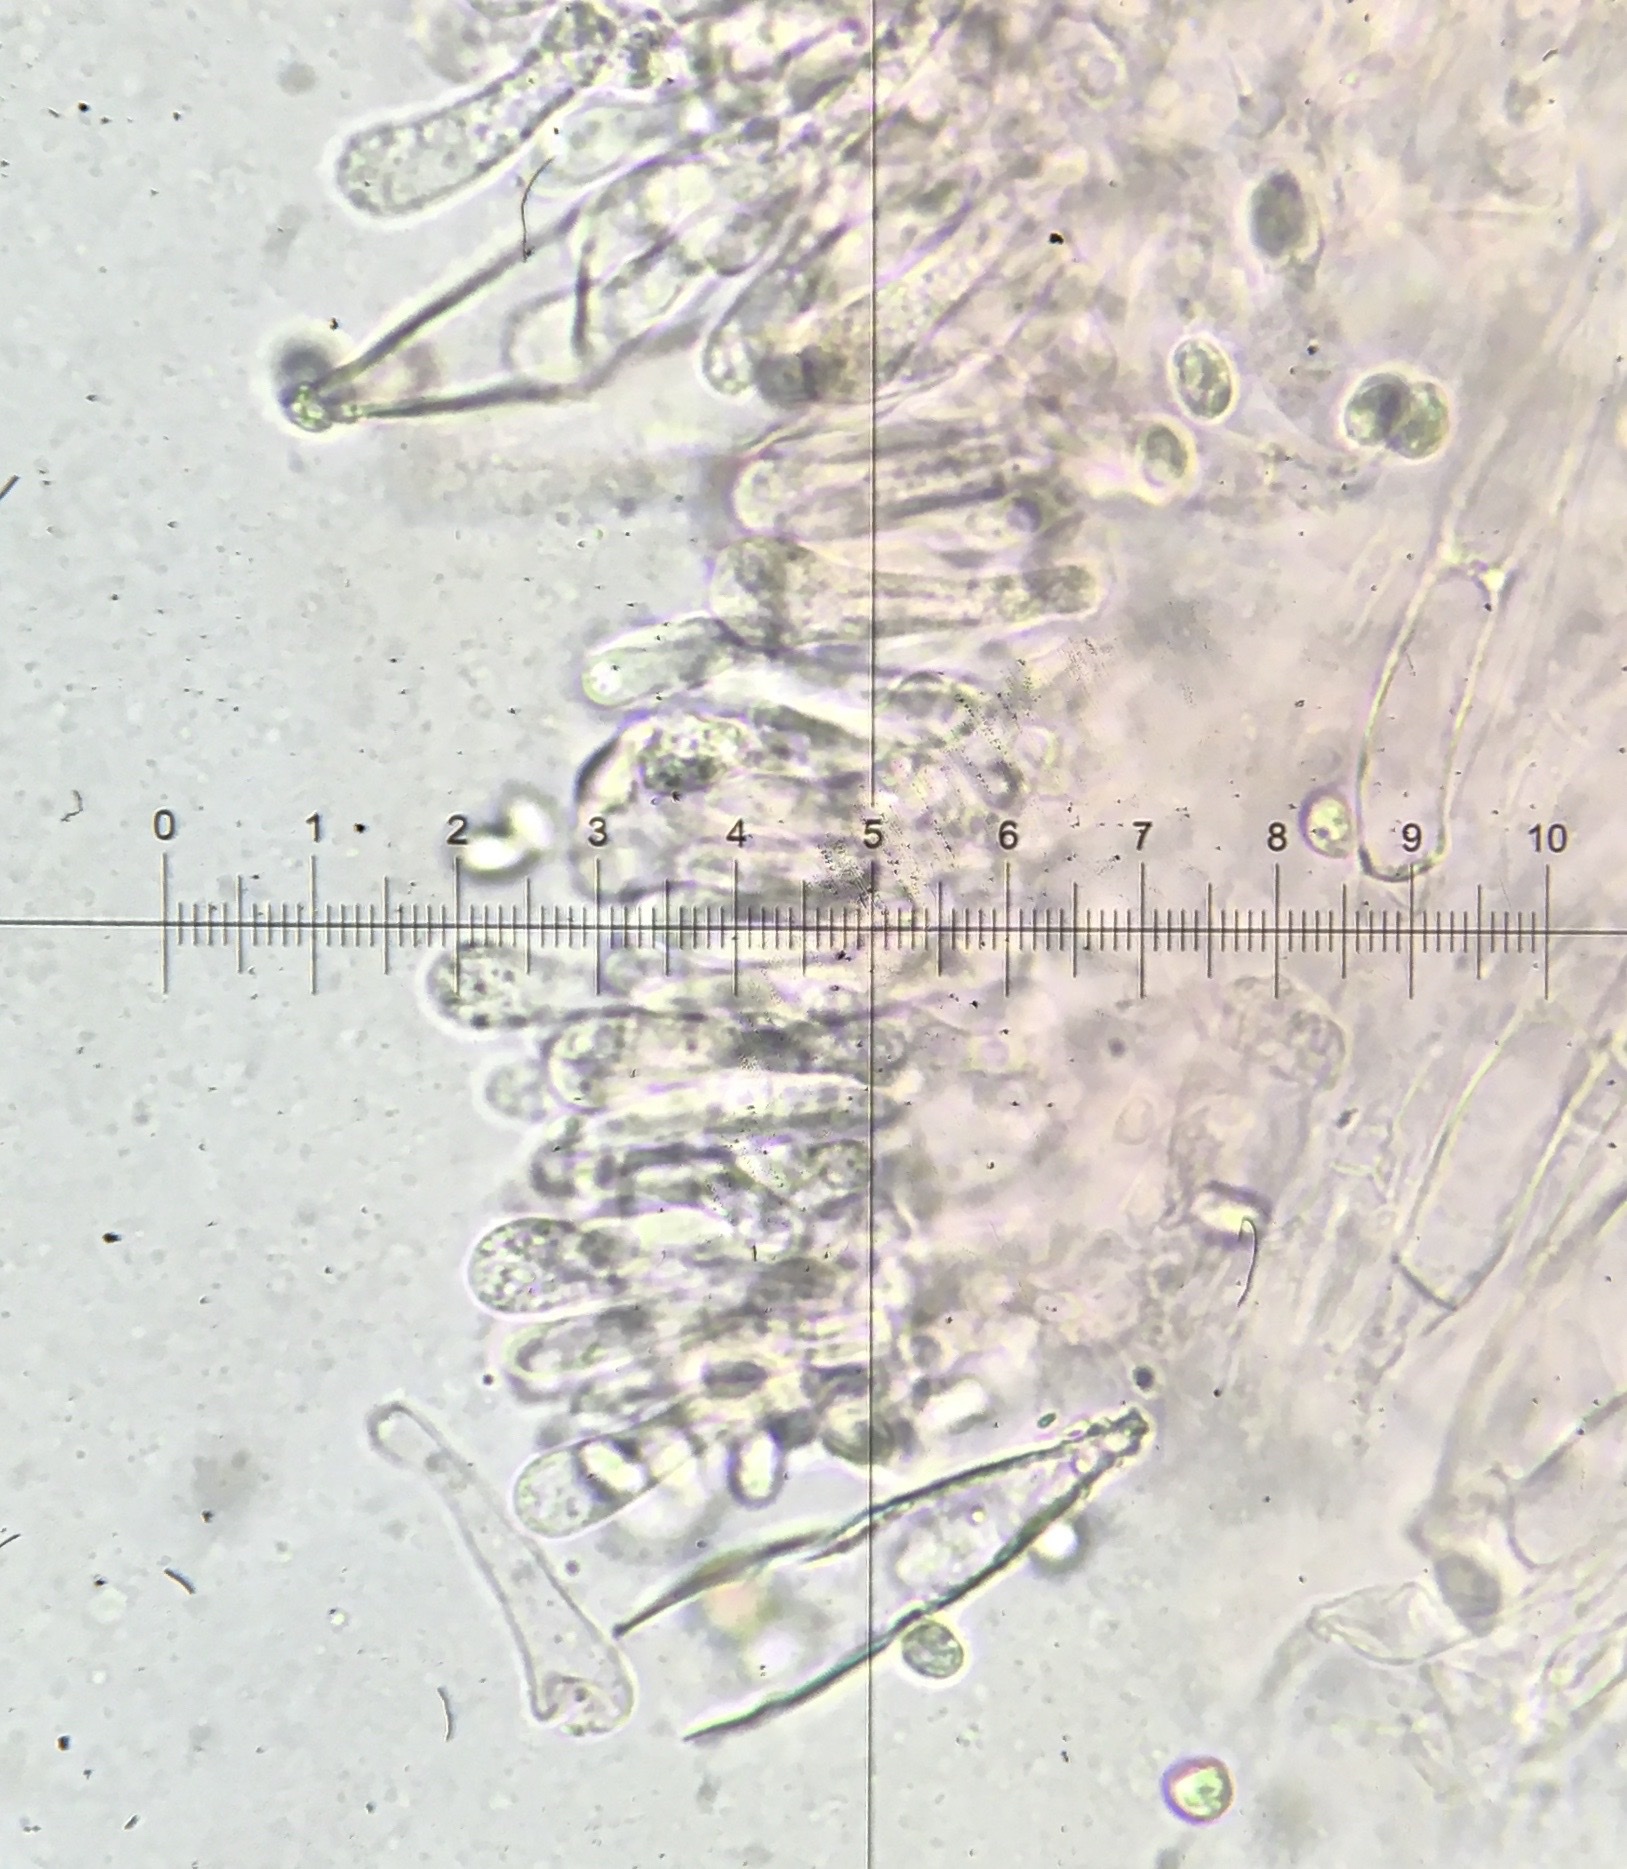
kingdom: Fungi
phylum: Basidiomycota
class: Agaricomycetes
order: Agaricales
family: Tricholomataceae
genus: Squamanita
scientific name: Squamanita imbachii
